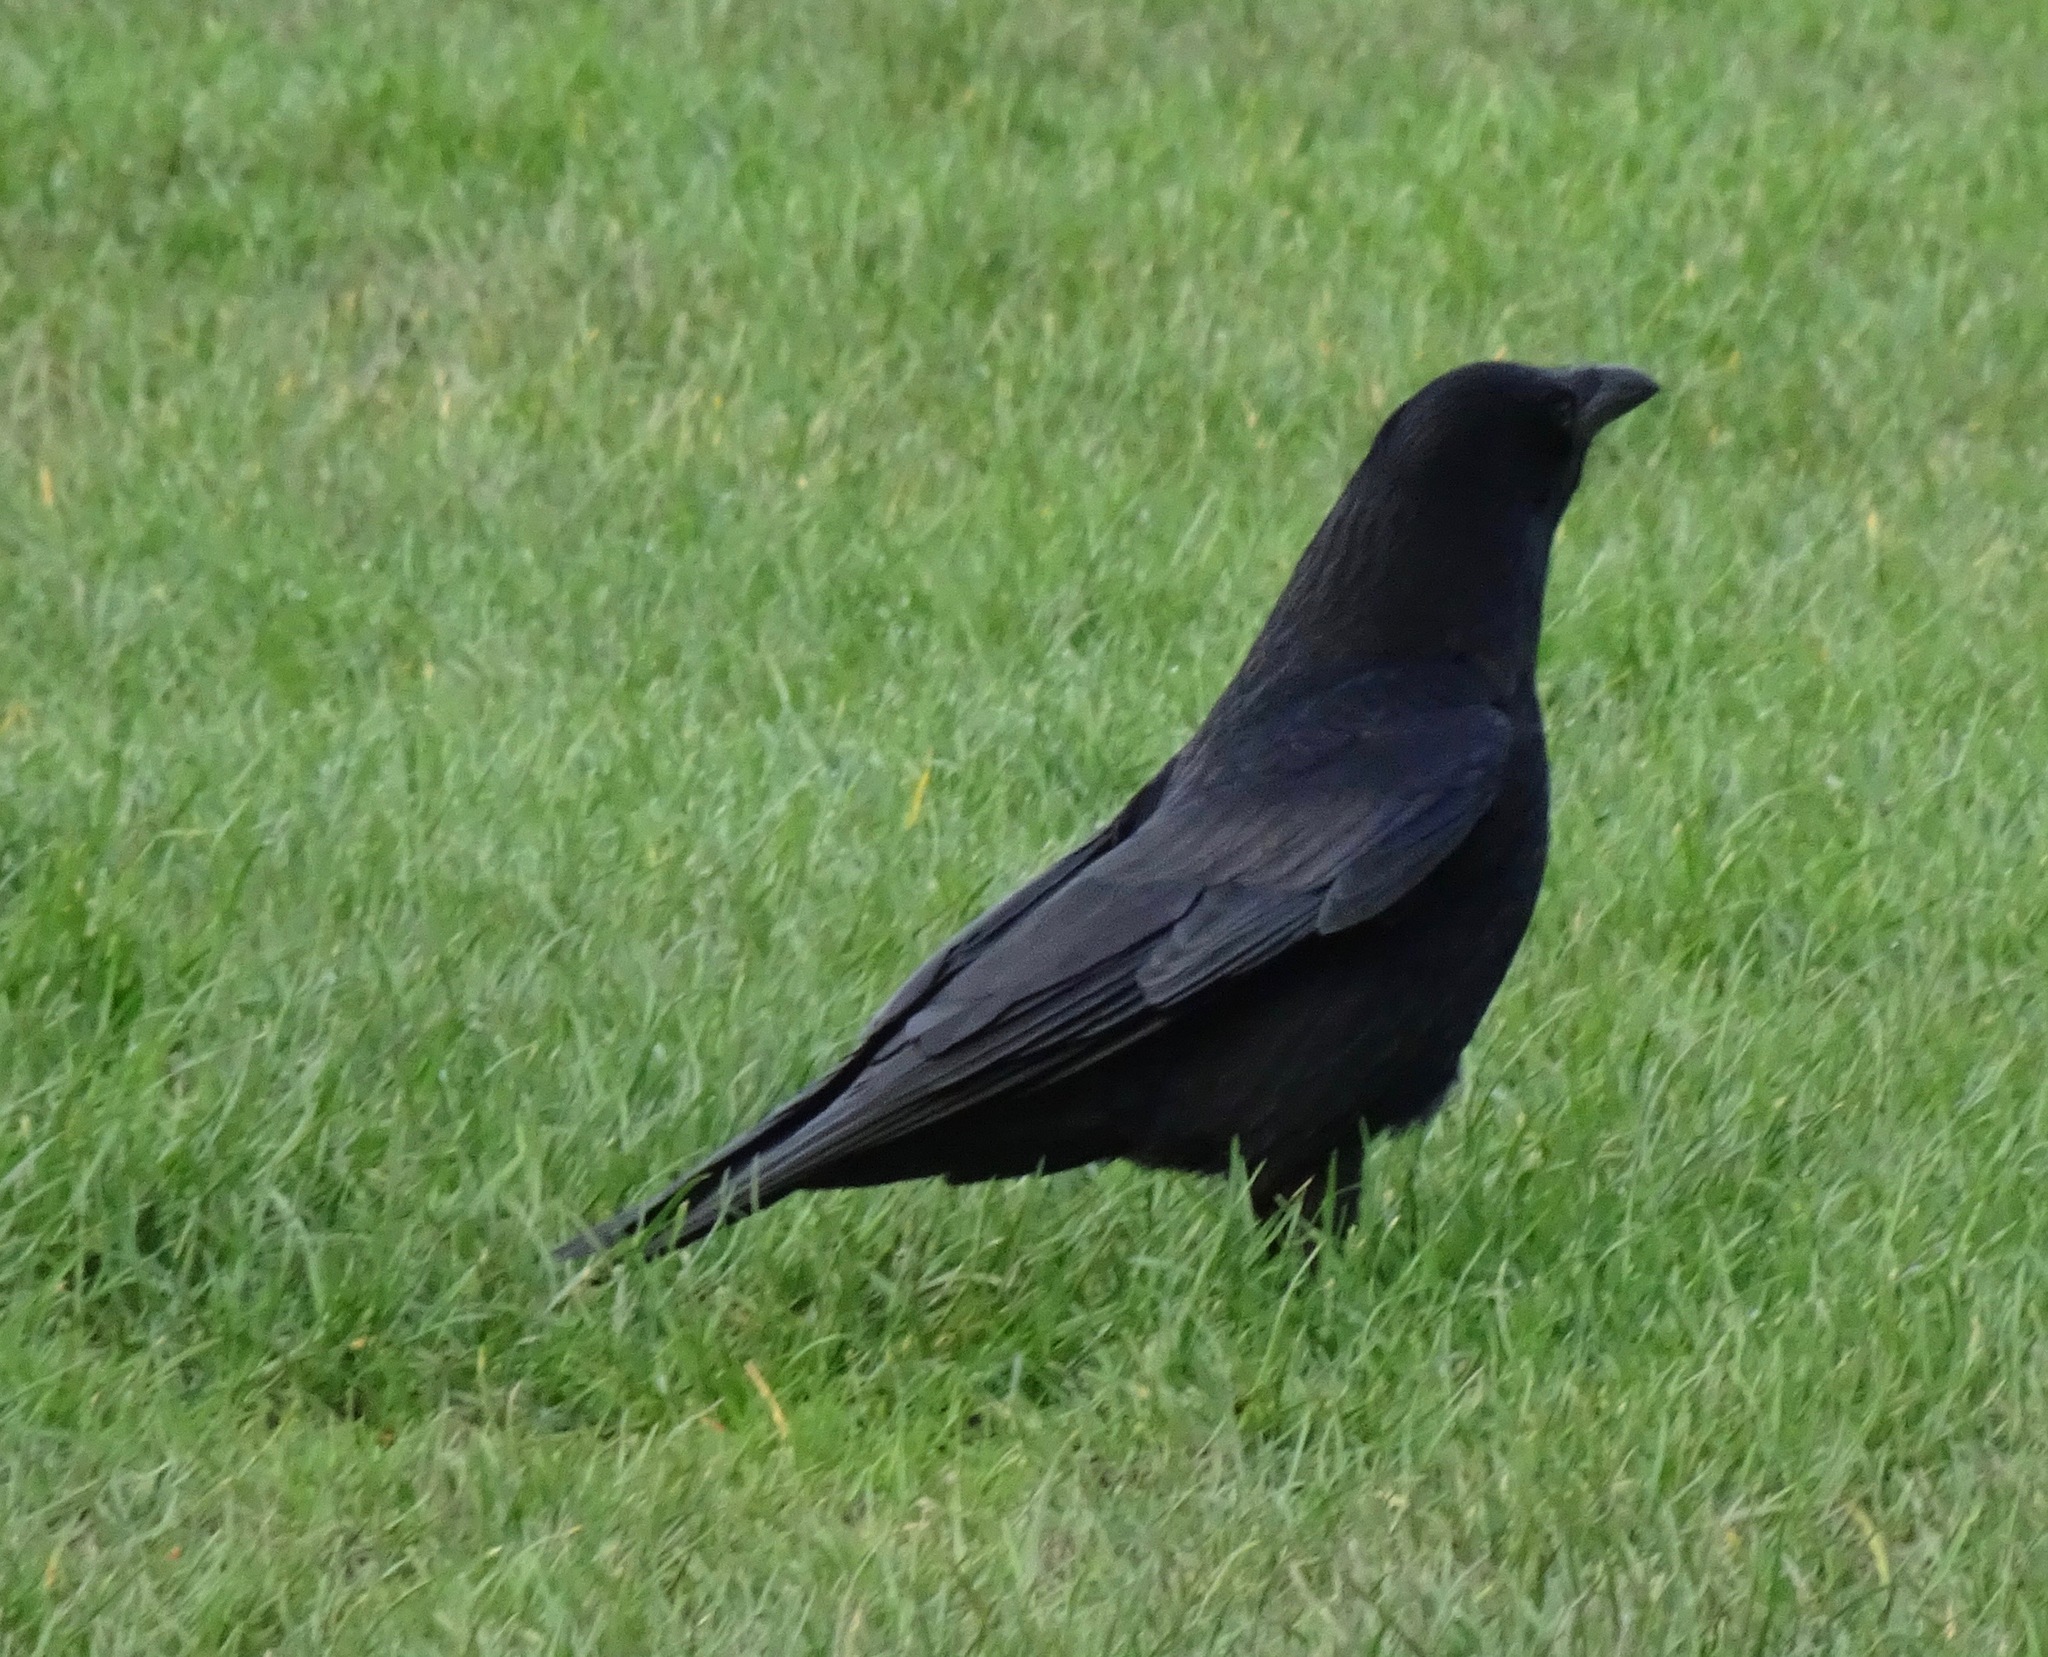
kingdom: Animalia
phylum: Chordata
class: Aves
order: Passeriformes
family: Corvidae
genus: Corvus
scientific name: Corvus corone
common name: Carrion crow
